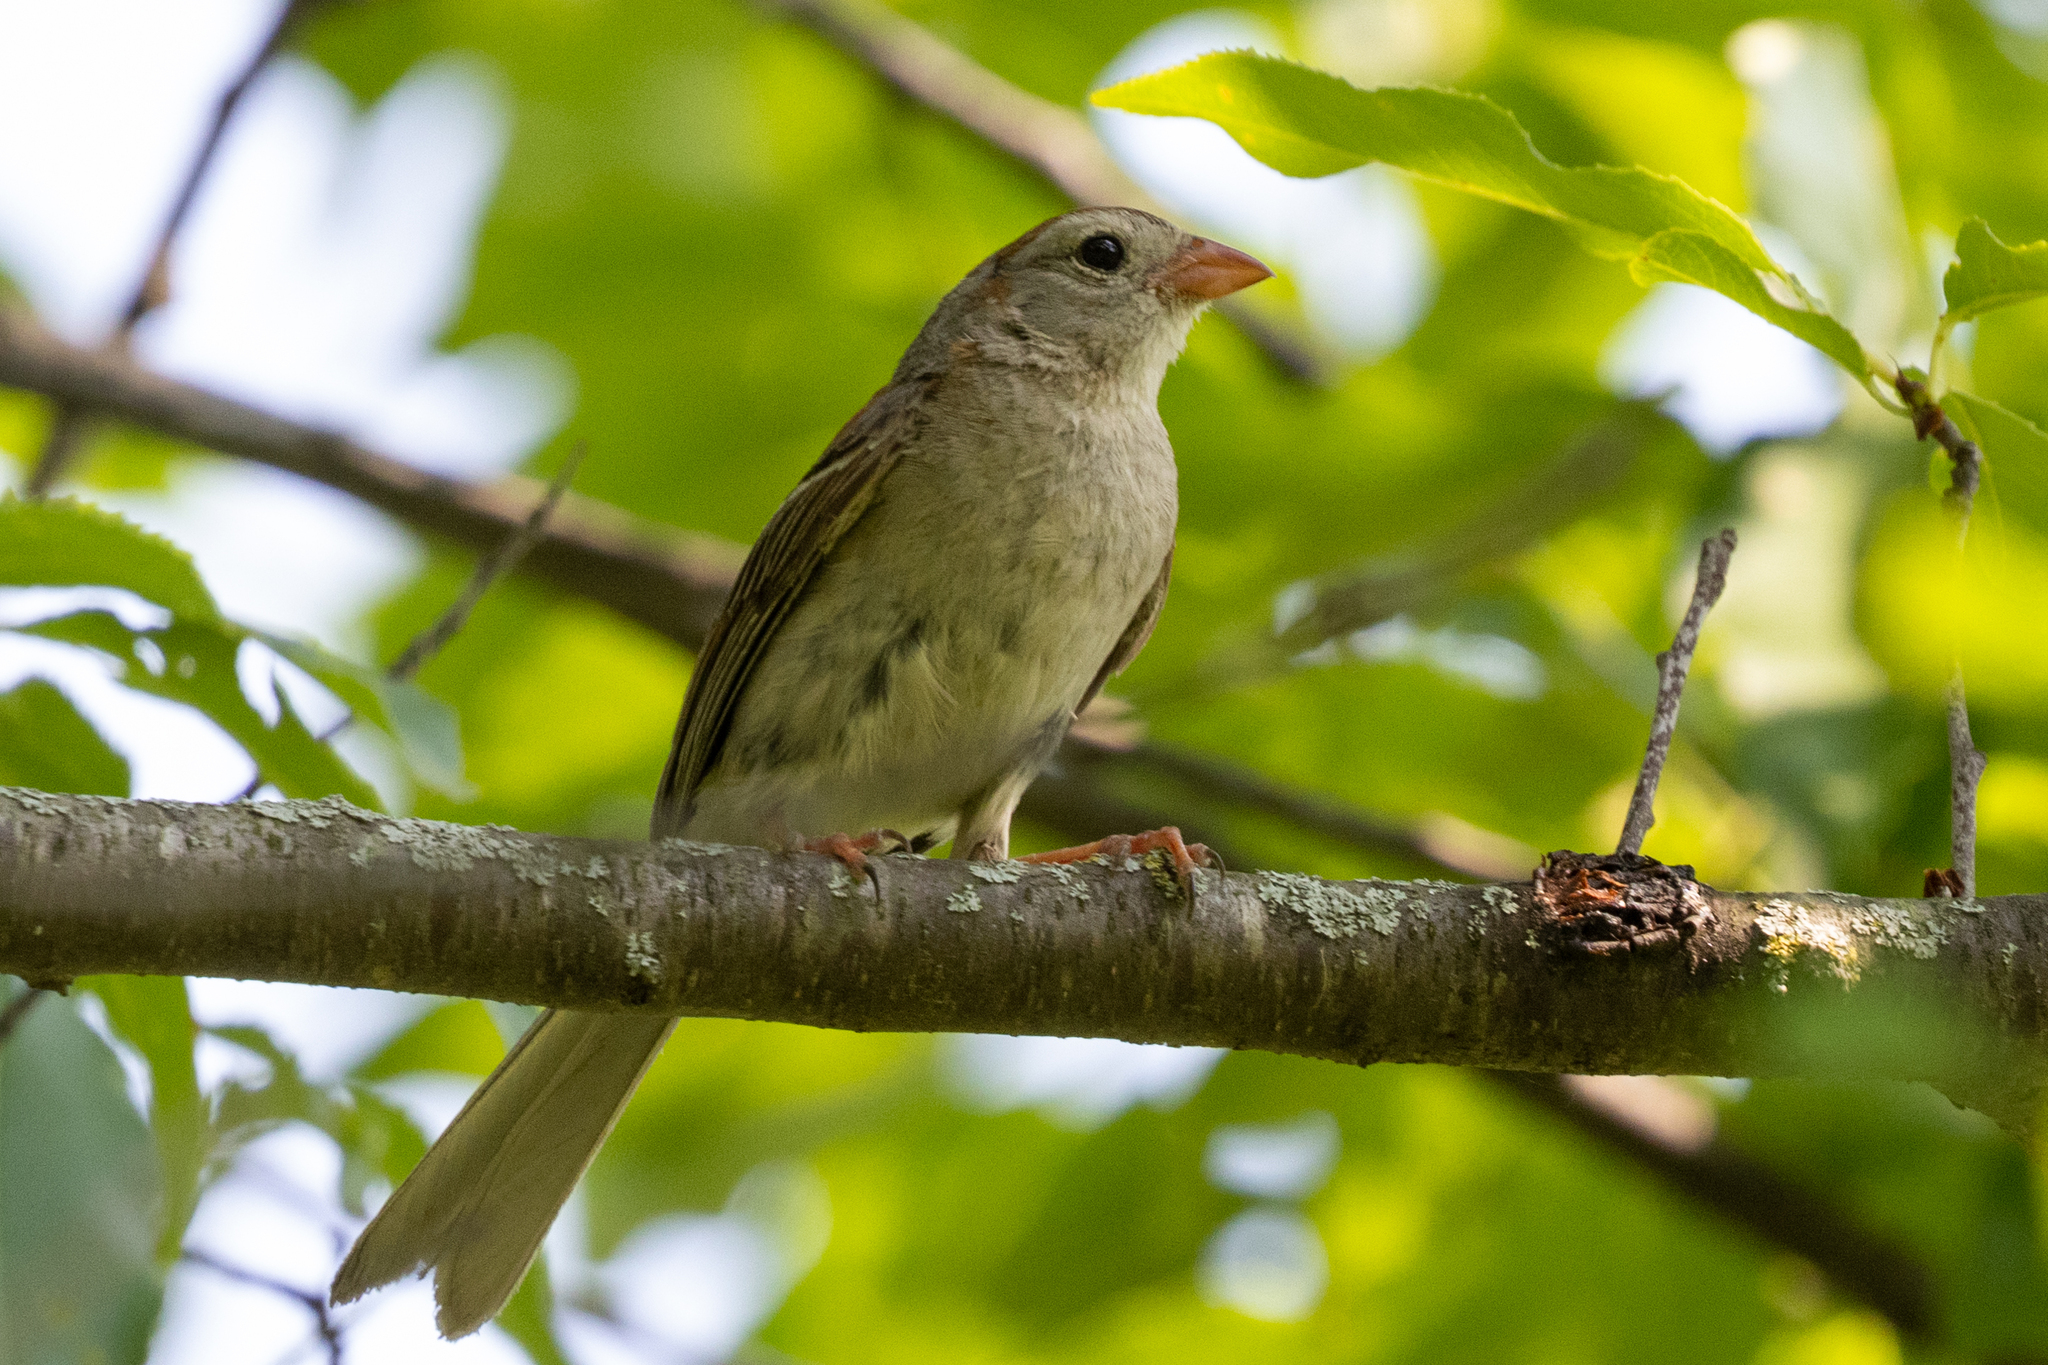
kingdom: Animalia
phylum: Chordata
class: Aves
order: Passeriformes
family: Passerellidae
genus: Spizella
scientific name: Spizella pusilla
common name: Field sparrow
